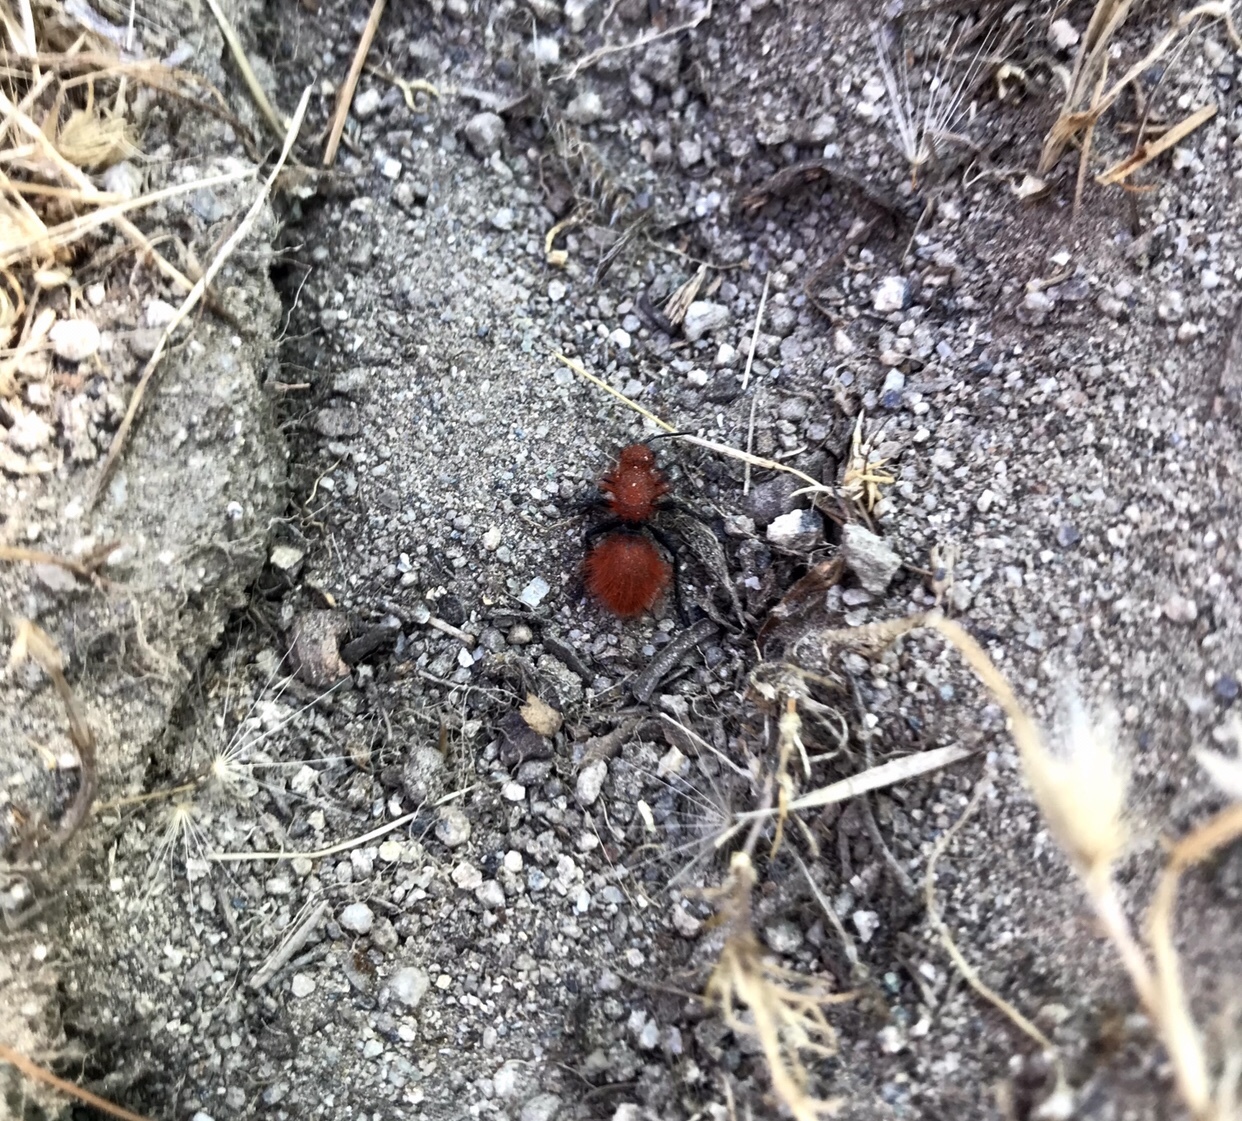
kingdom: Animalia
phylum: Arthropoda
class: Insecta
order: Hymenoptera
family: Mutillidae
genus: Dasymutilla
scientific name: Dasymutilla
